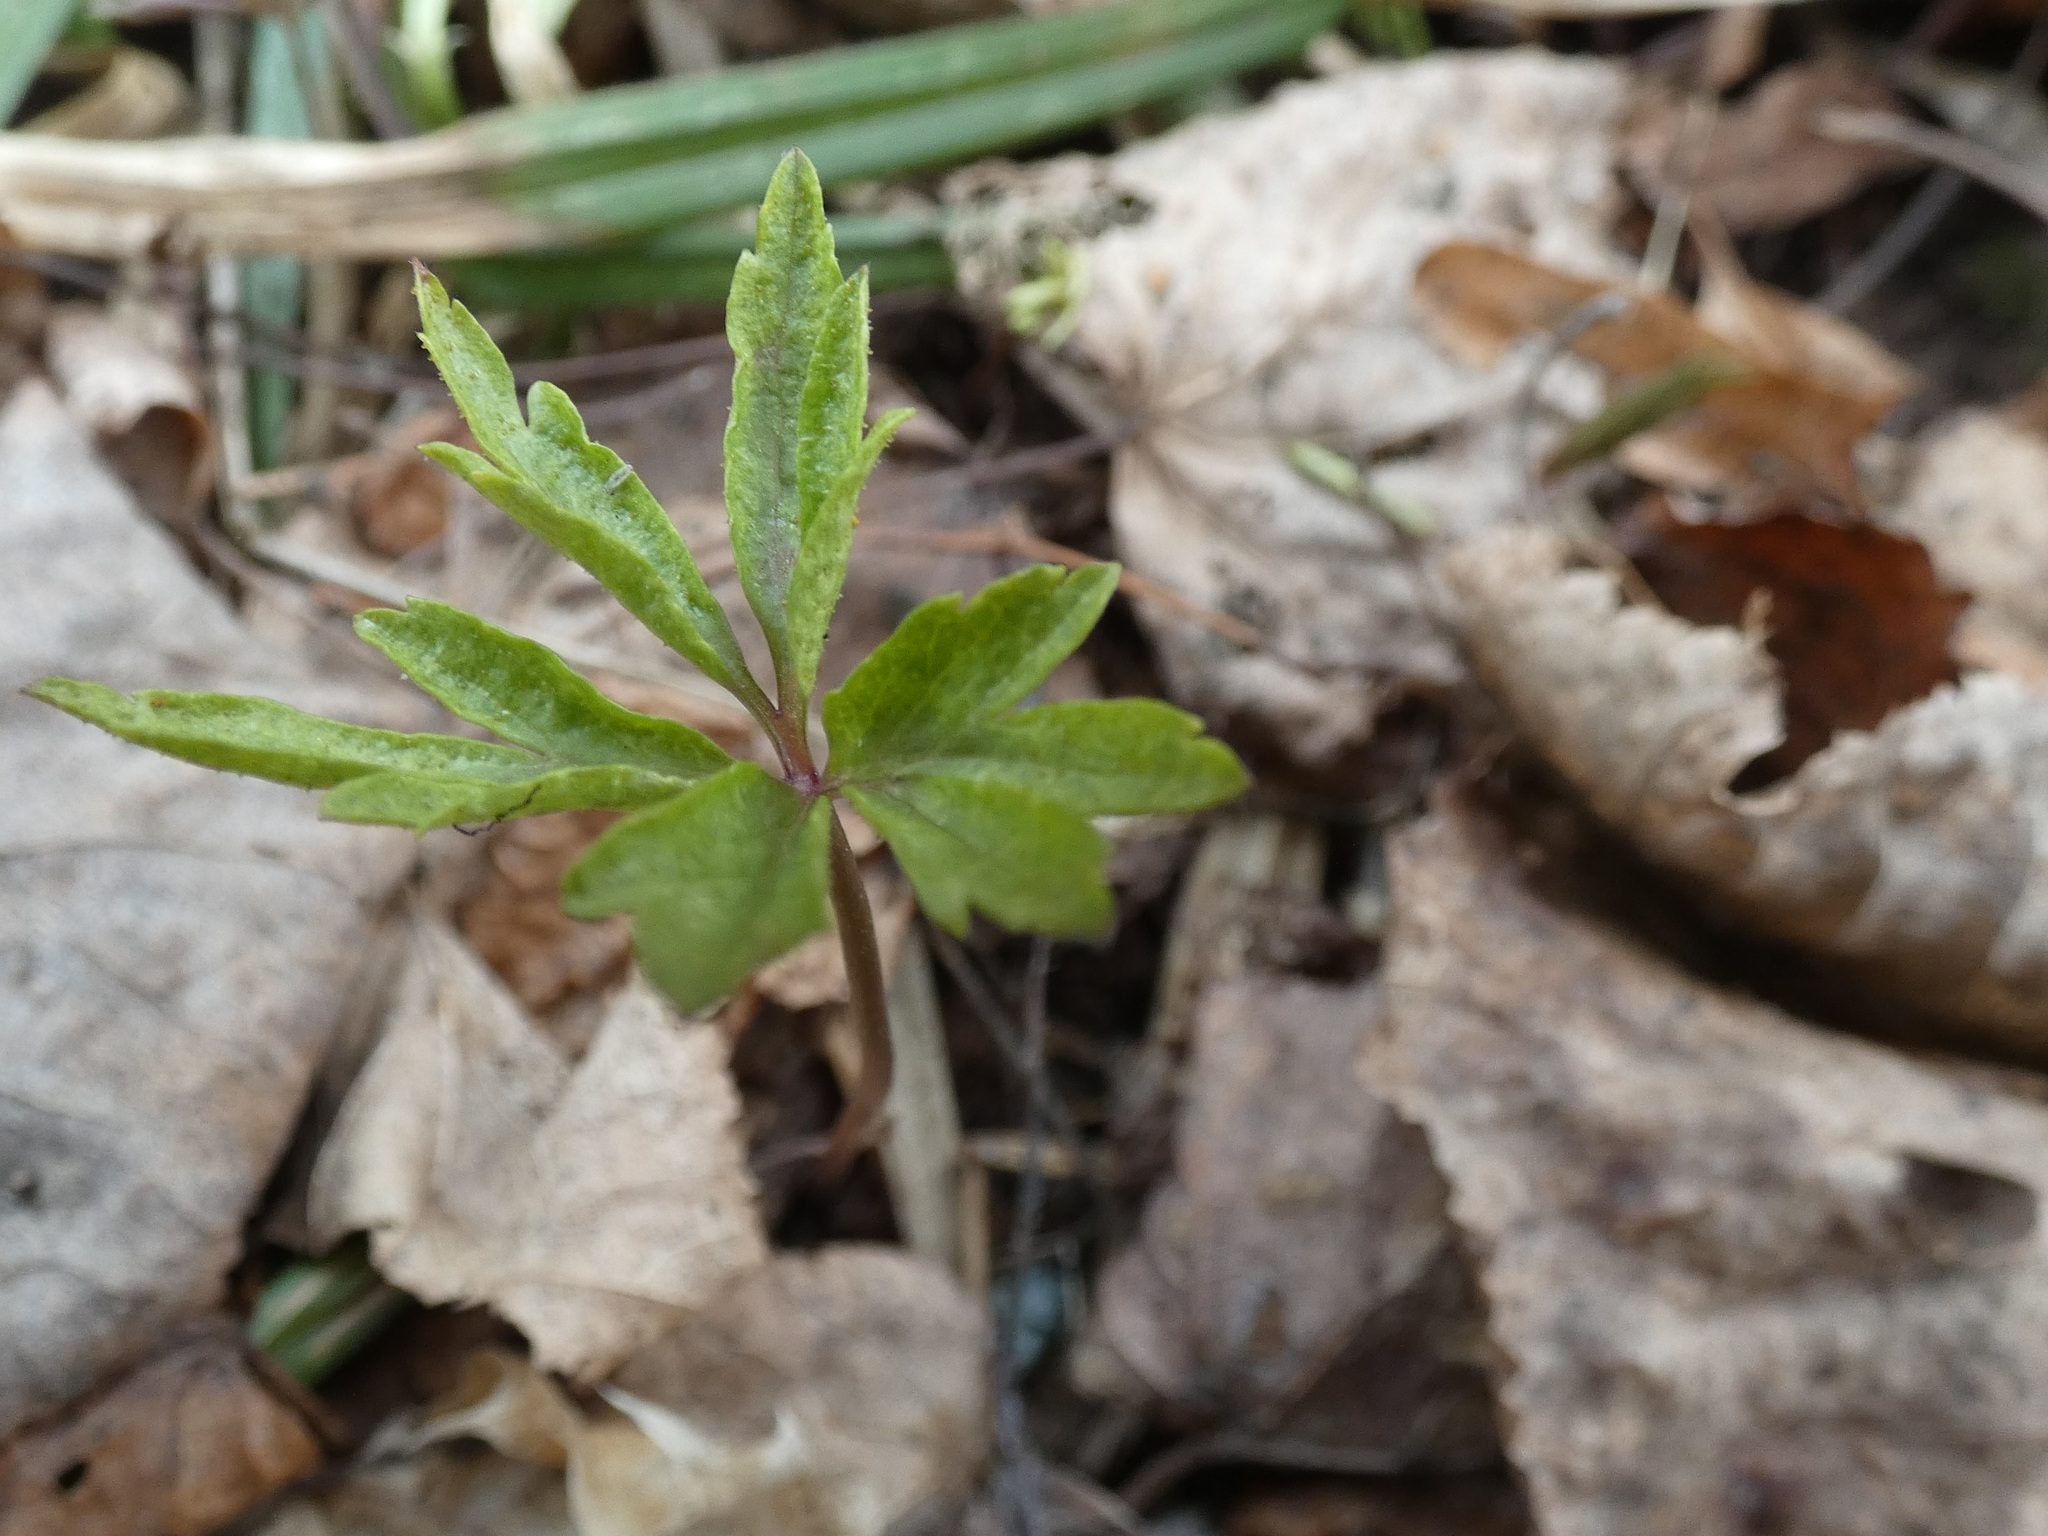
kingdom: Plantae
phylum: Tracheophyta
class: Magnoliopsida
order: Ranunculales
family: Ranunculaceae
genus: Anemone
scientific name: Anemone ranunculoides
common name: Yellow anemone
